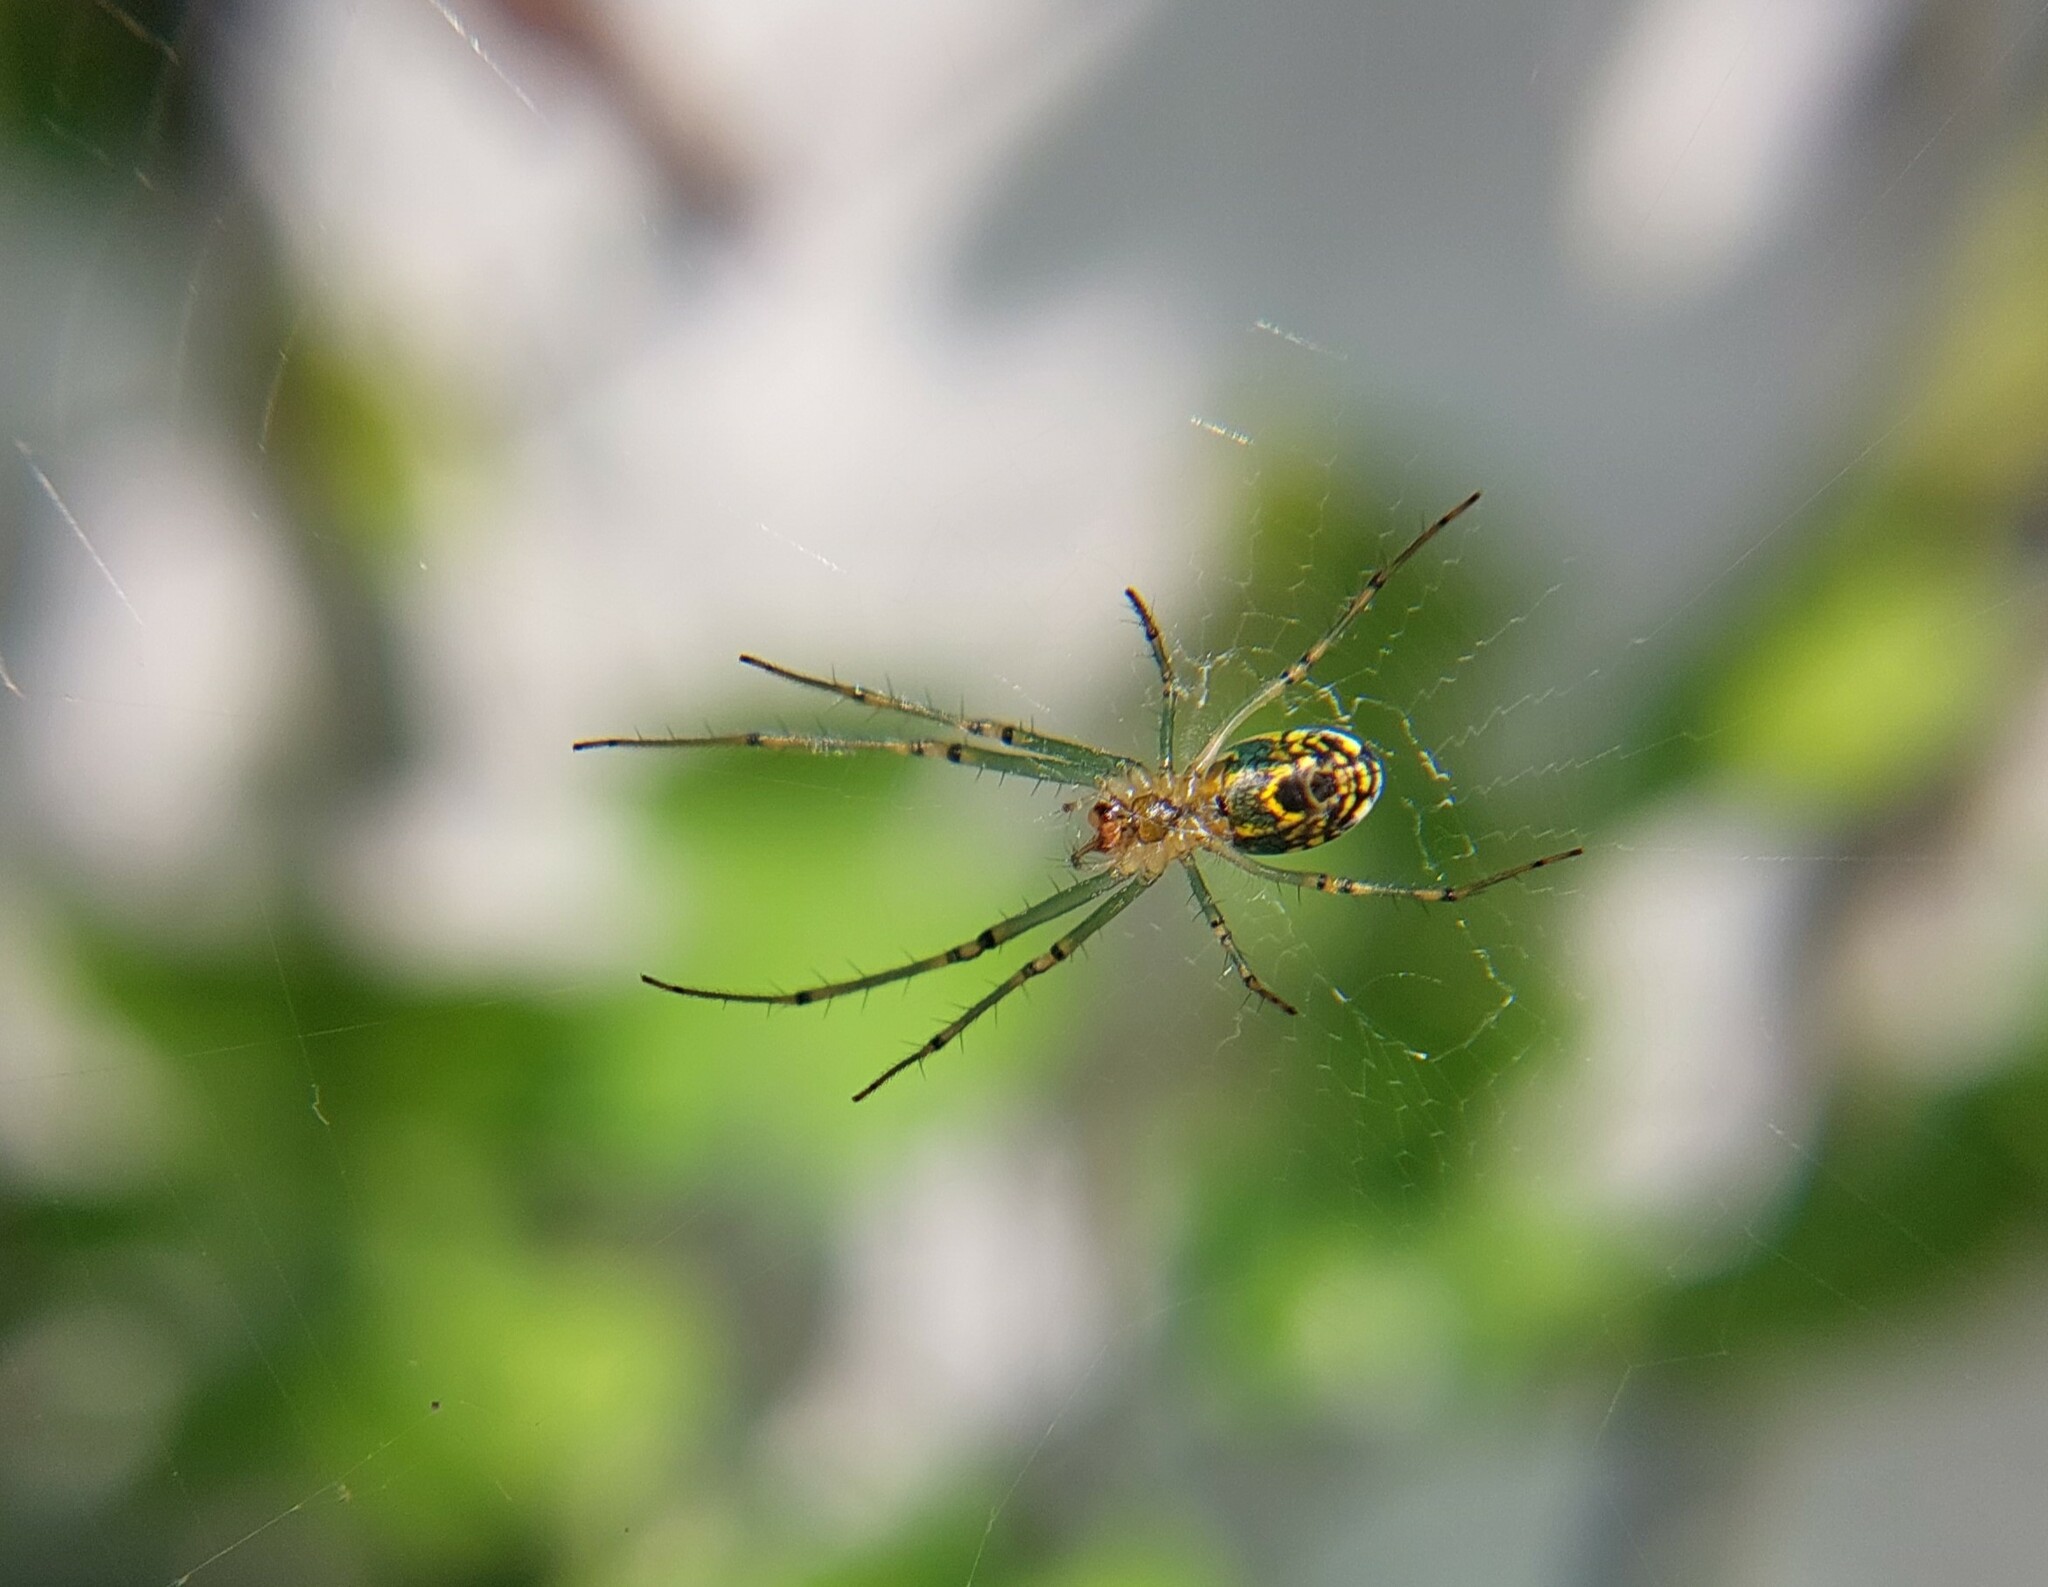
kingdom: Animalia
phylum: Arthropoda
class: Arachnida
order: Araneae
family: Tetragnathidae
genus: Leucauge
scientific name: Leucauge venusta
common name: Longjawed orb weavers
